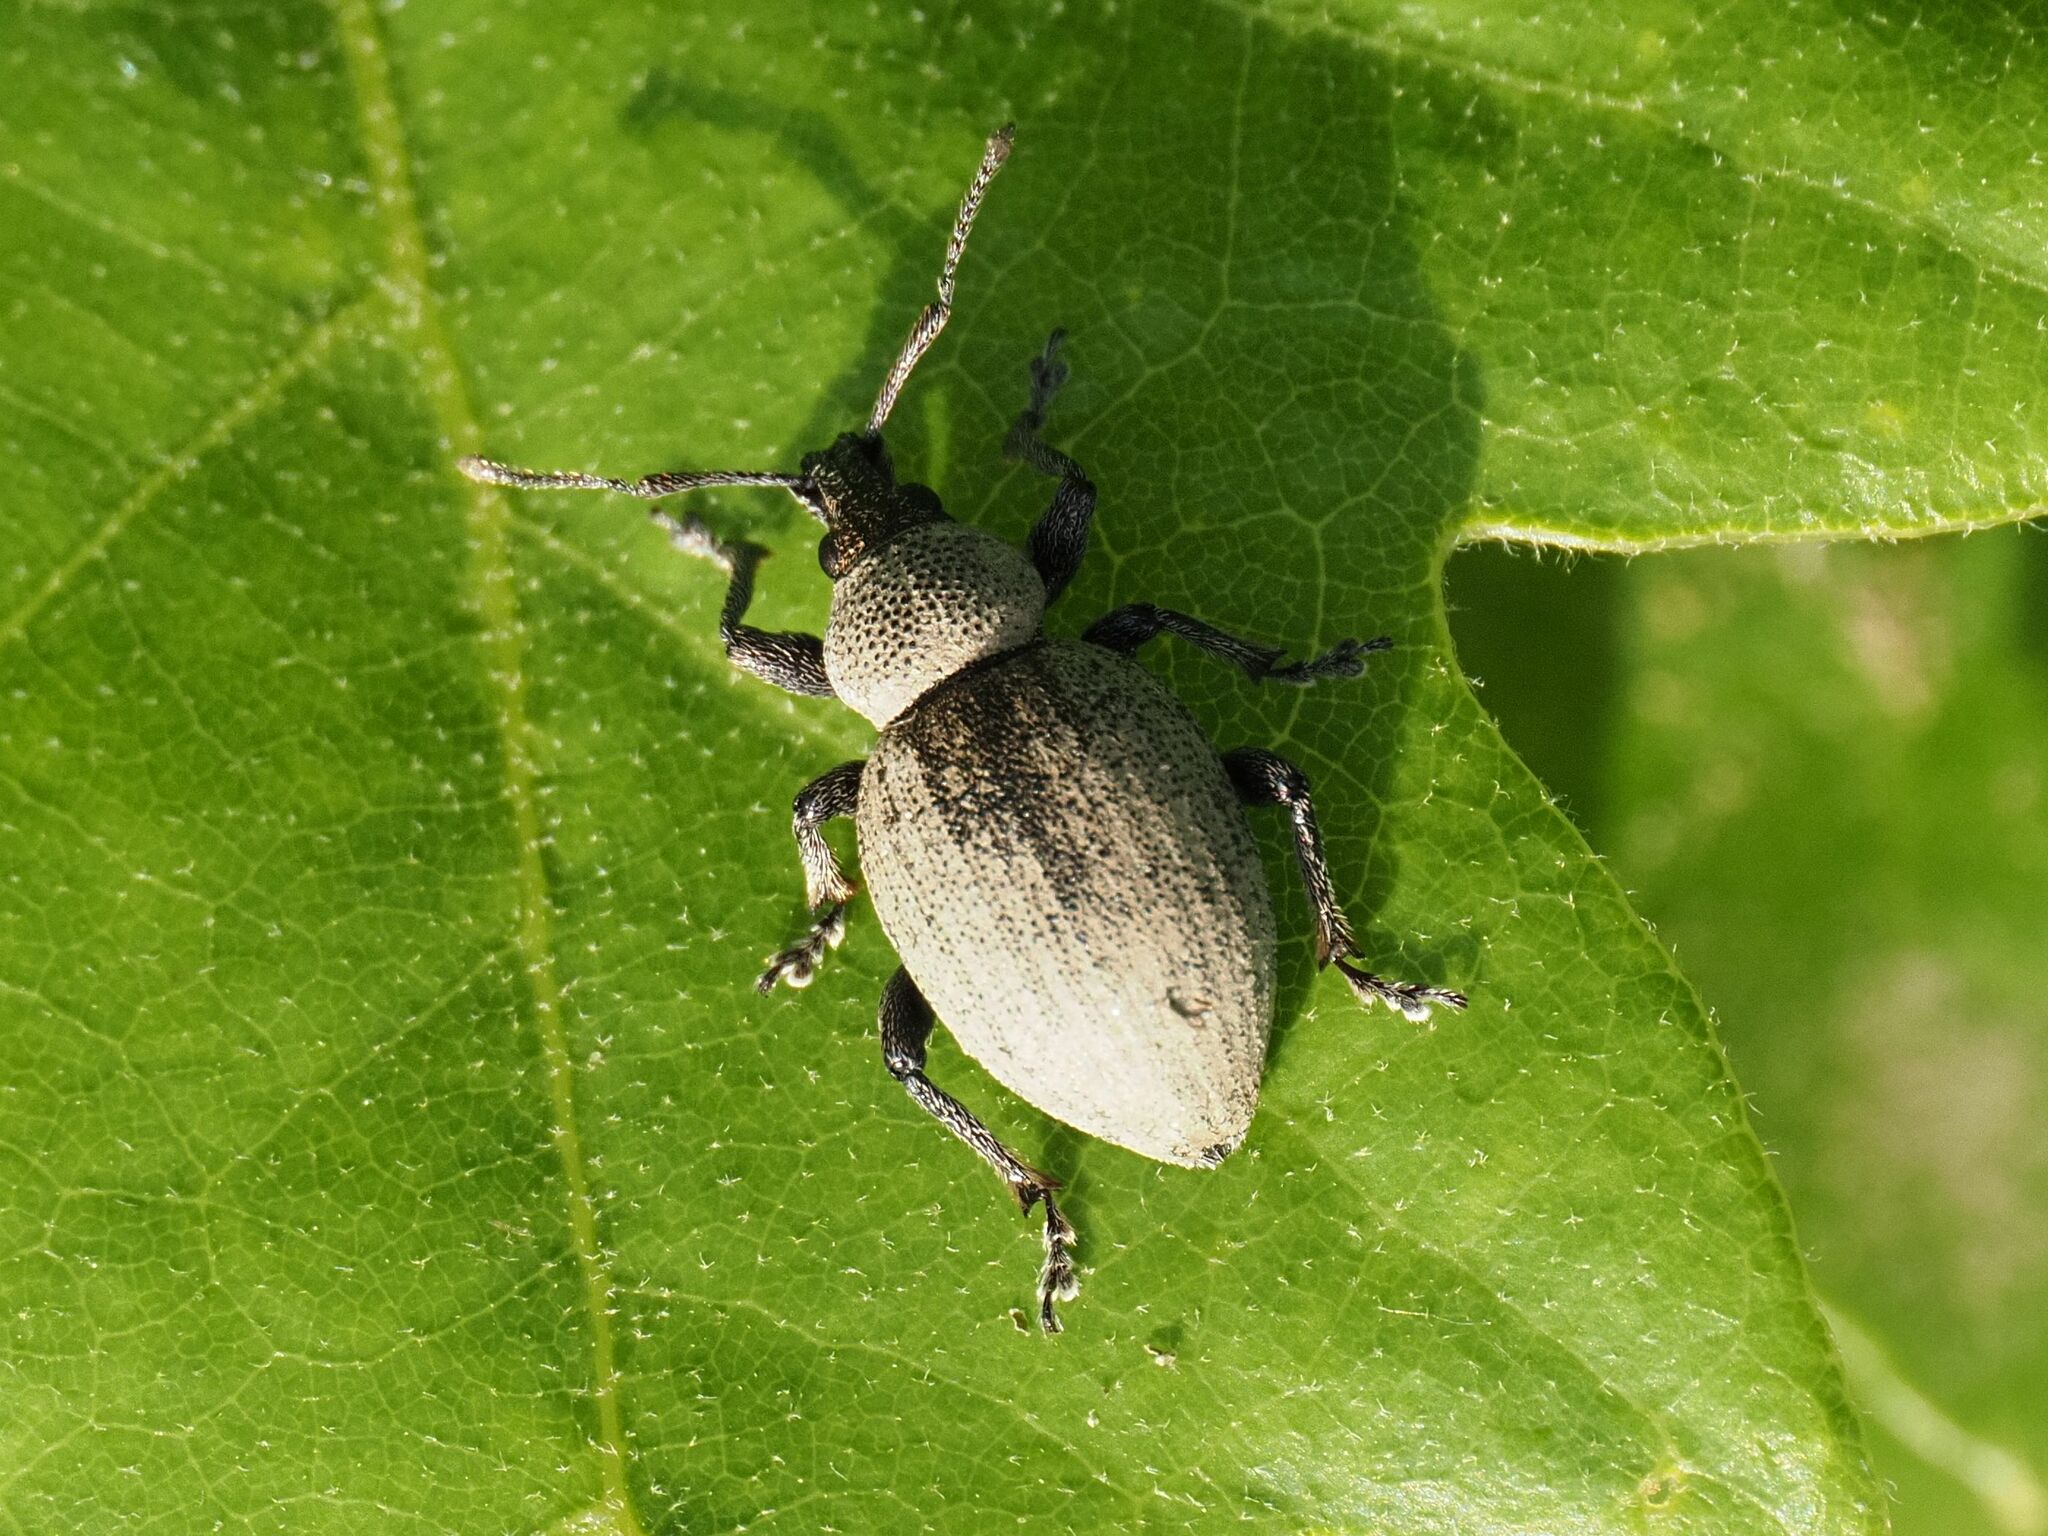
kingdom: Animalia
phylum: Arthropoda
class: Insecta
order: Coleoptera
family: Curculionidae
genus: Otiorhynchus
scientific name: Otiorhynchus ligustici
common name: Weevil
